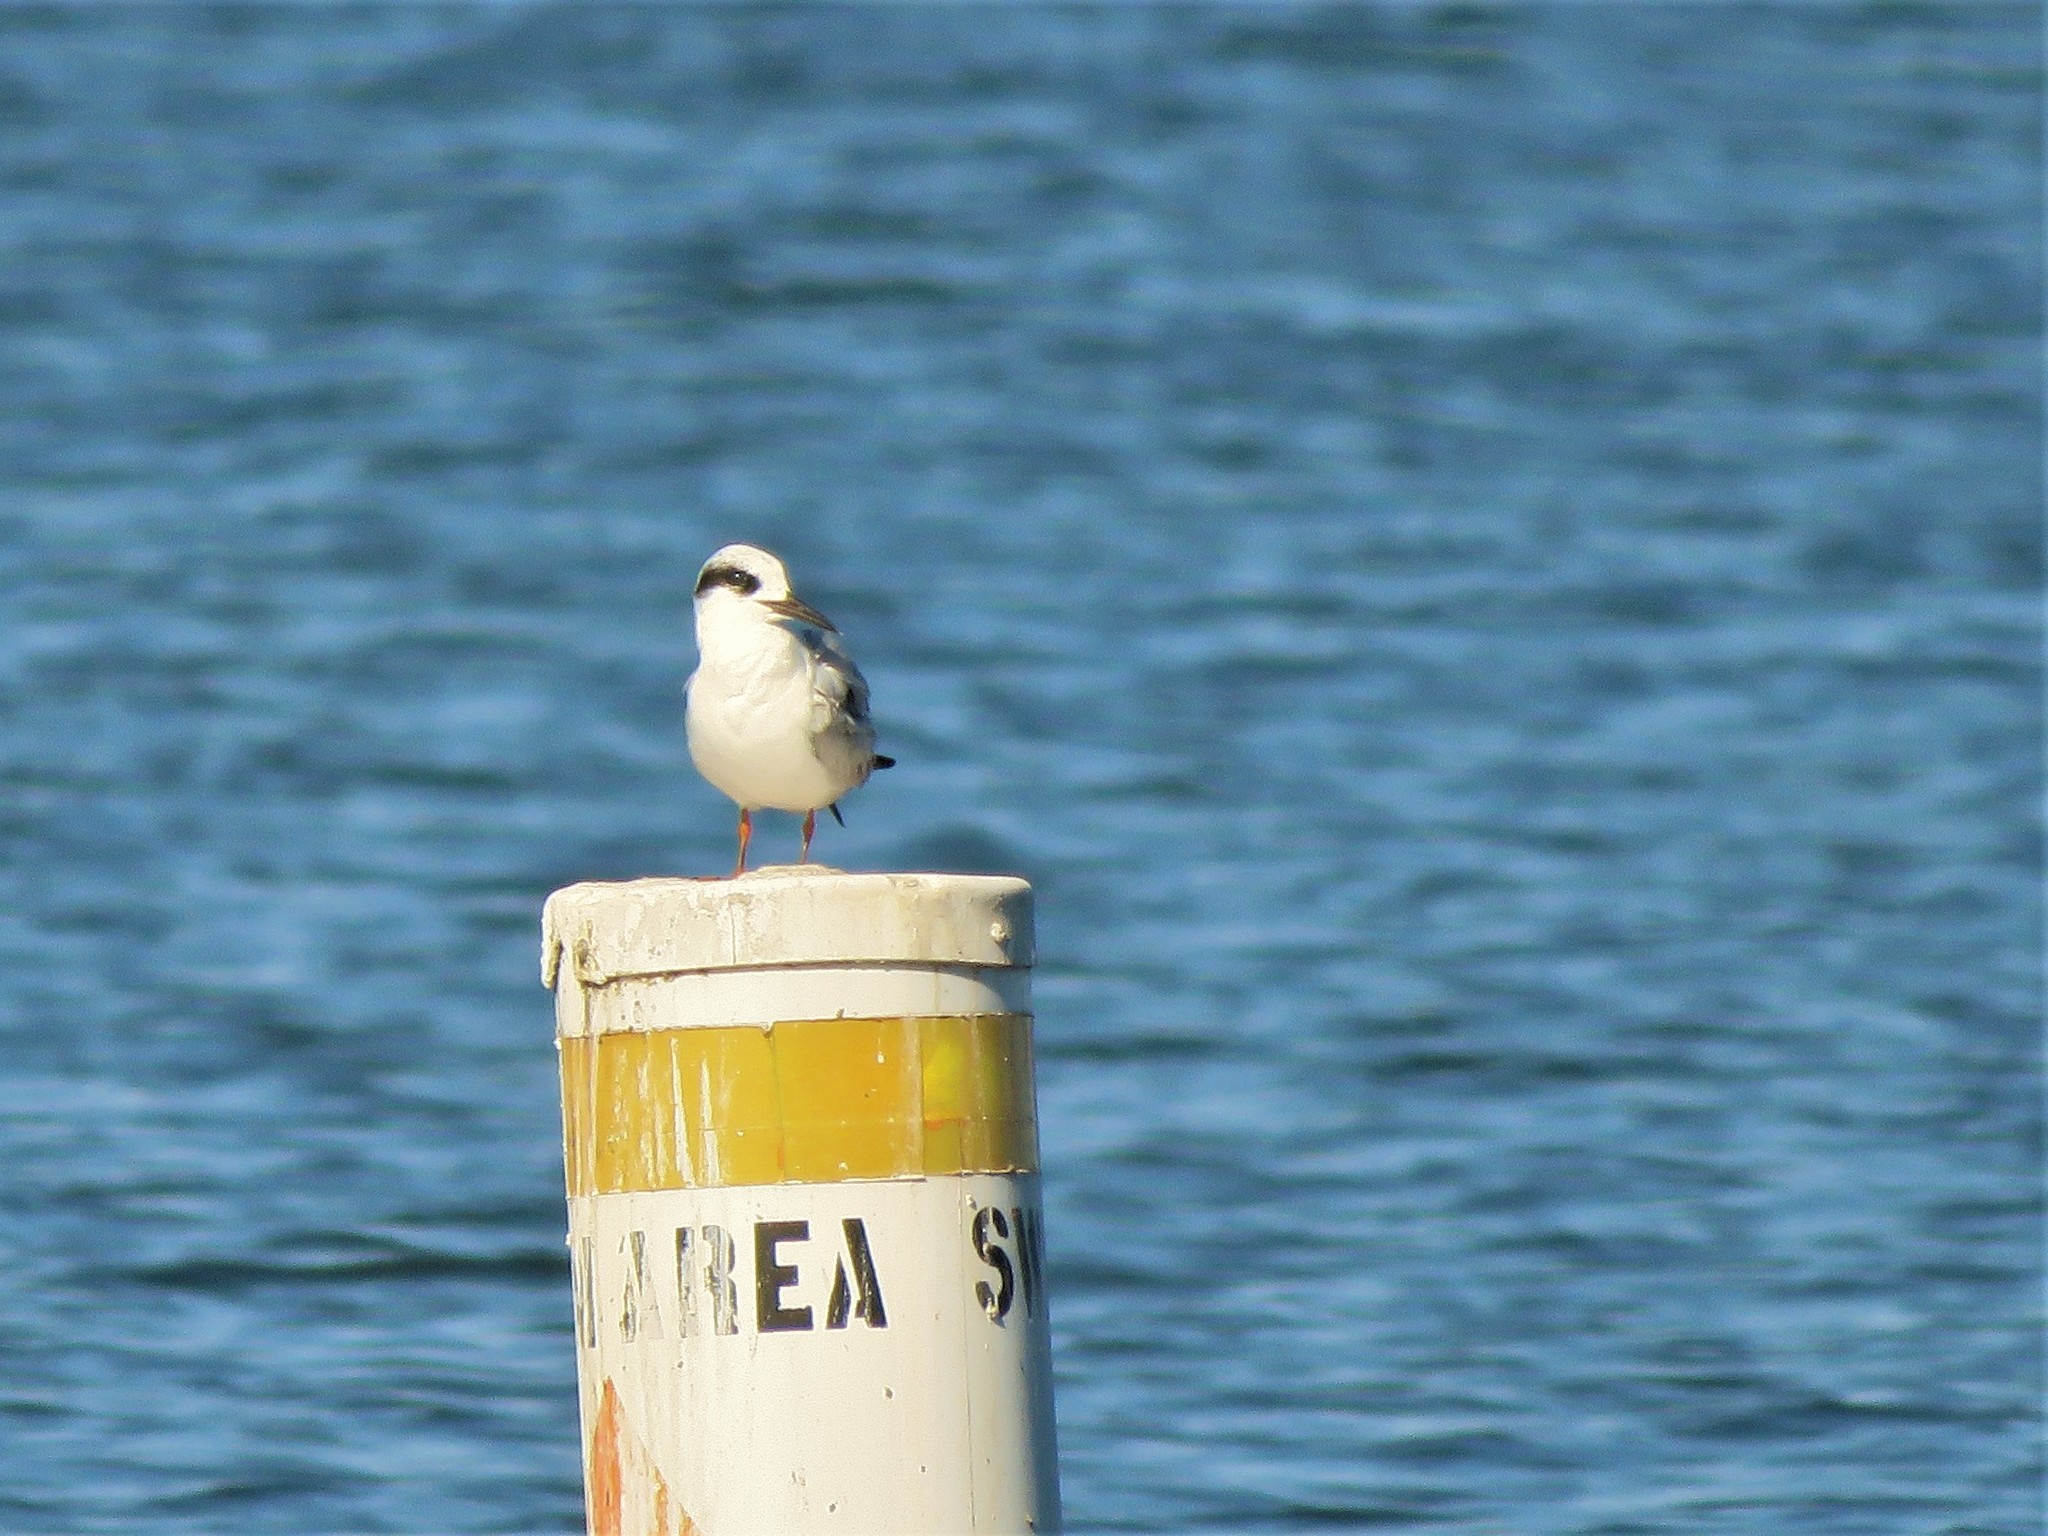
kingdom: Animalia
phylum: Chordata
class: Aves
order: Charadriiformes
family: Laridae
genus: Sterna
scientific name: Sterna forsteri
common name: Forster's tern
